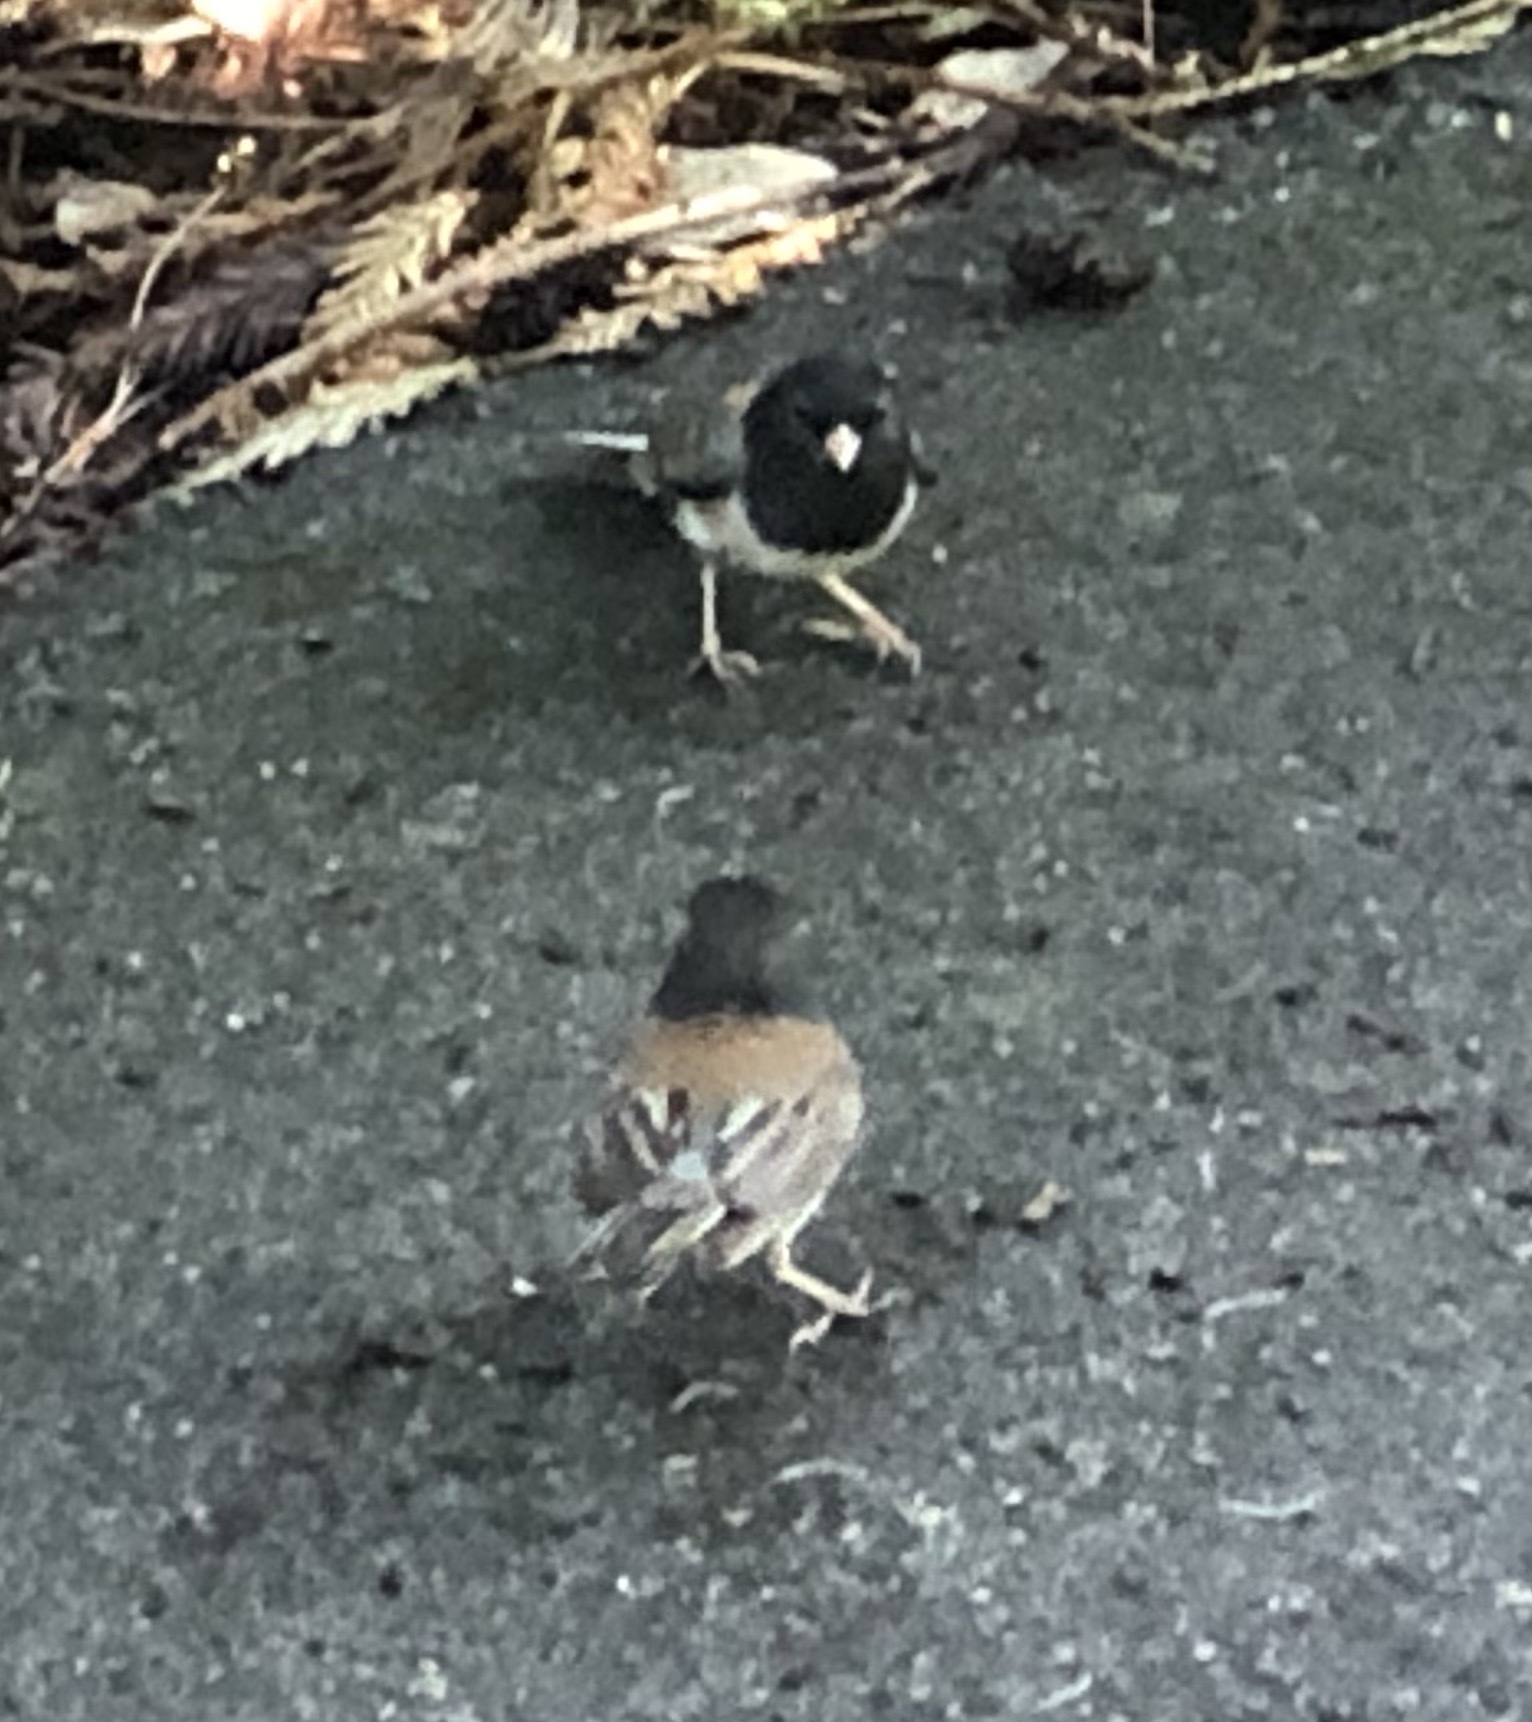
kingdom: Animalia
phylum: Chordata
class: Aves
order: Passeriformes
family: Passerellidae
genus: Junco
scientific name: Junco hyemalis
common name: Dark-eyed junco
